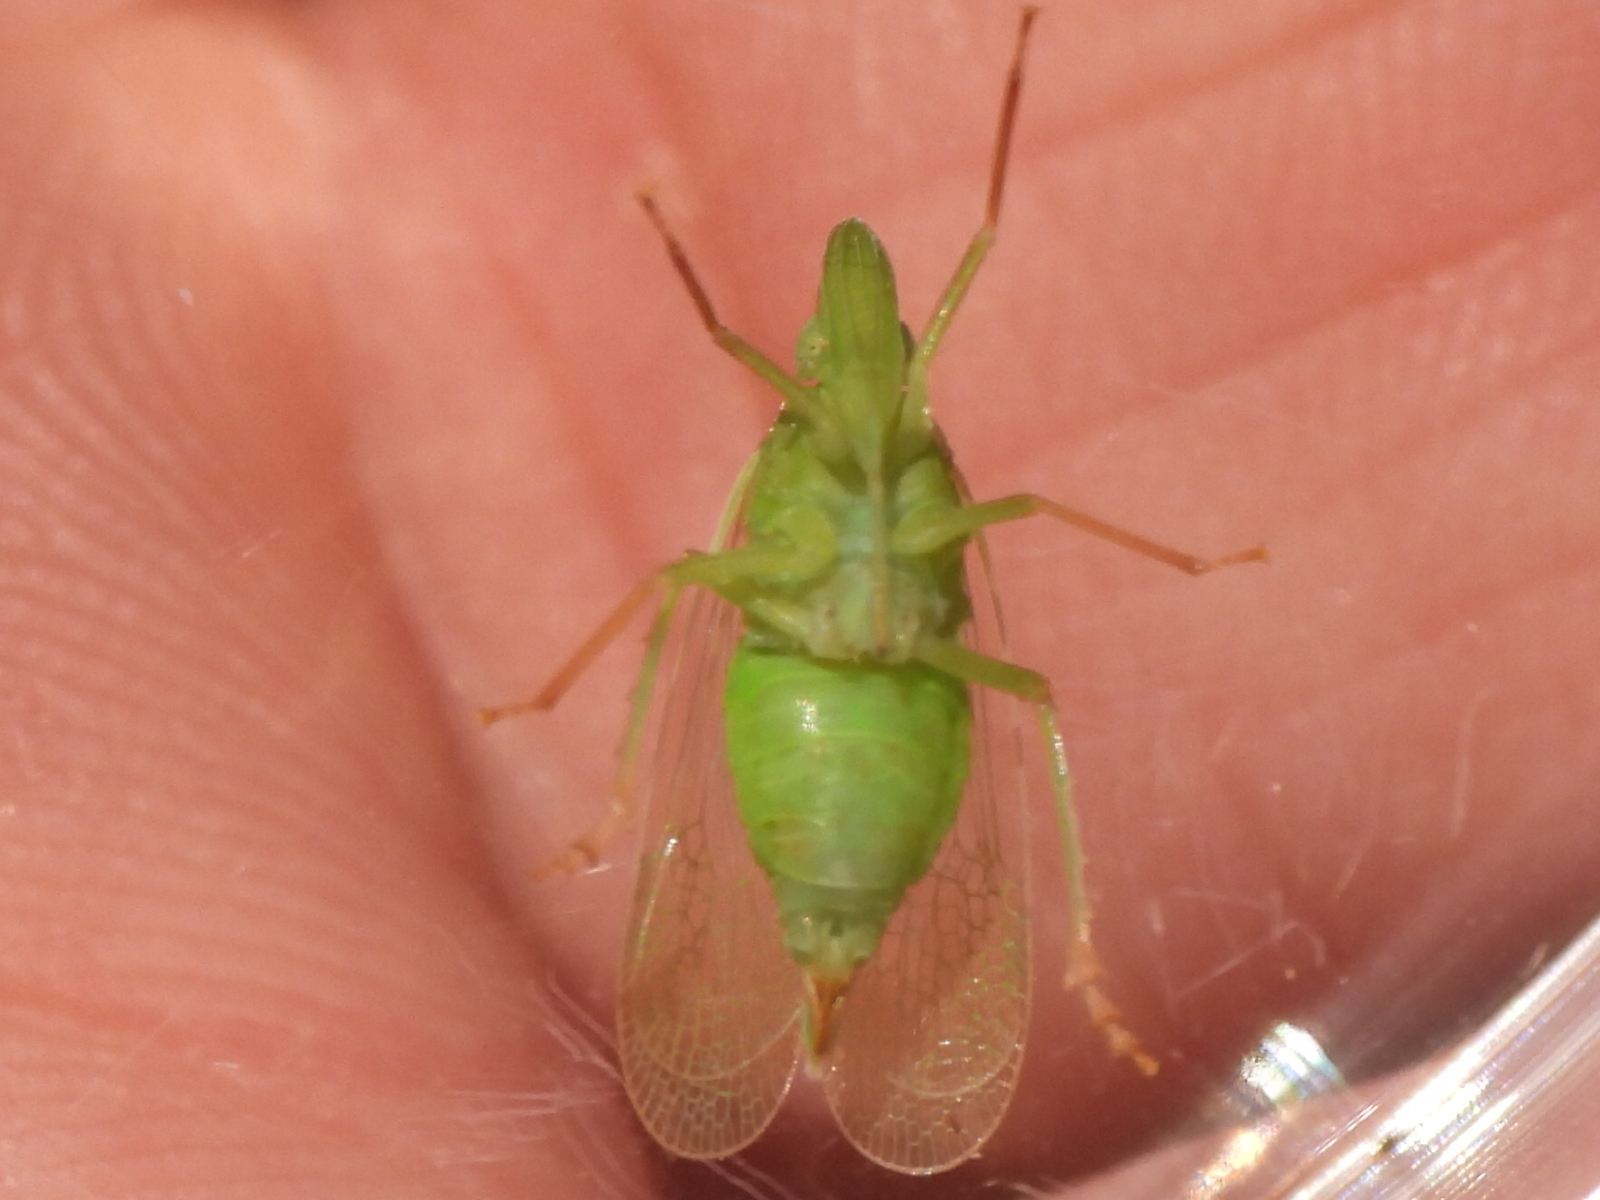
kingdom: Animalia
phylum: Arthropoda
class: Insecta
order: Hemiptera
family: Dictyopharidae
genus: Rhynchomitra
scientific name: Rhynchomitra recurva
